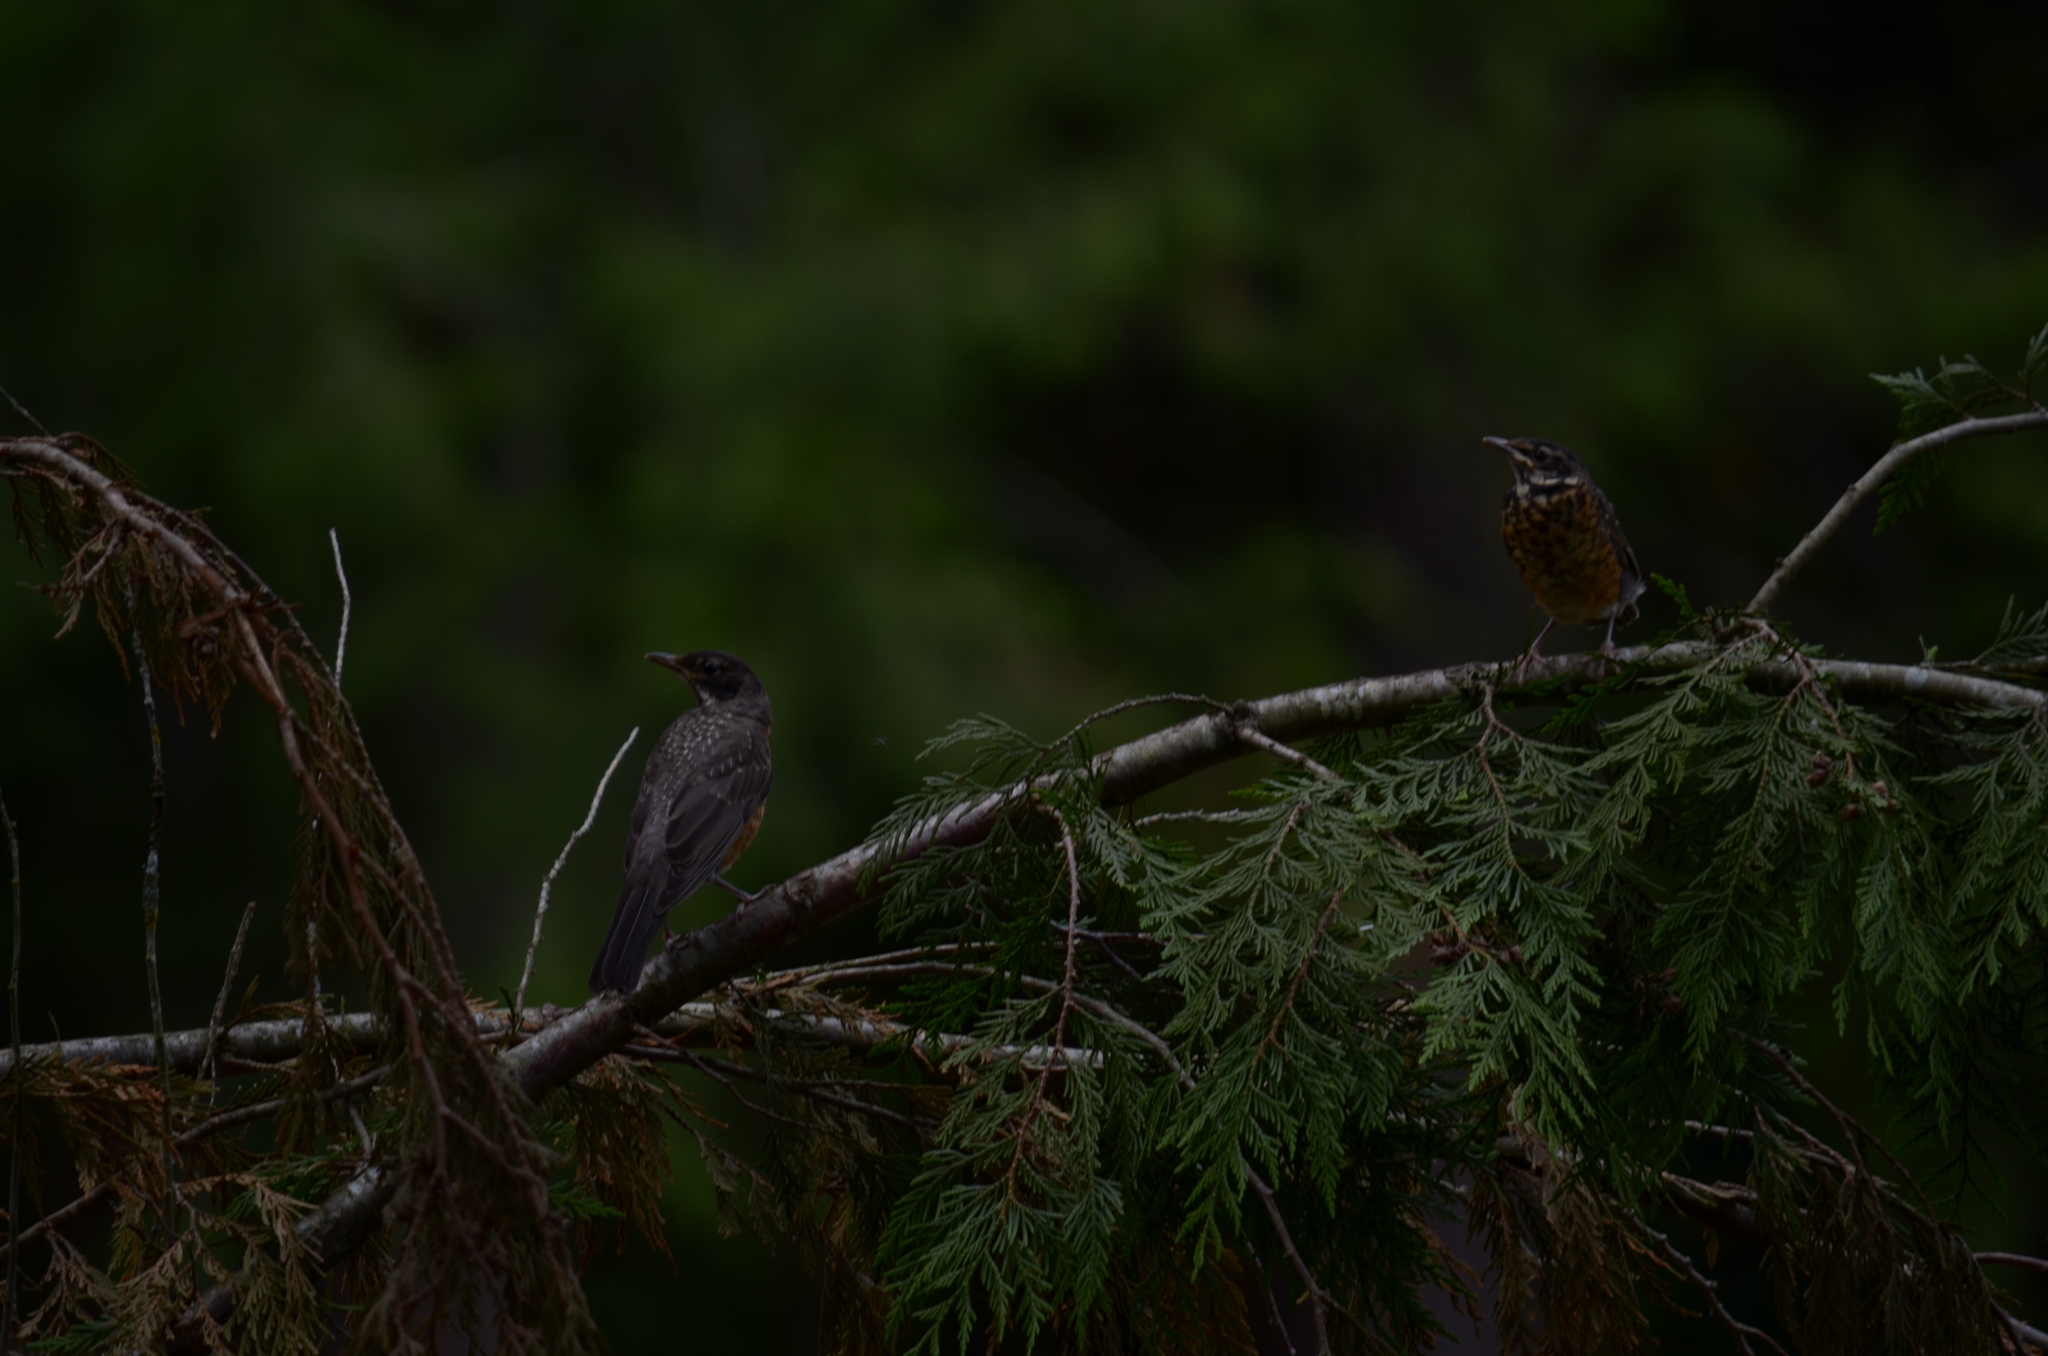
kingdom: Animalia
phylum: Chordata
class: Aves
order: Passeriformes
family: Turdidae
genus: Turdus
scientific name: Turdus migratorius
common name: American robin
